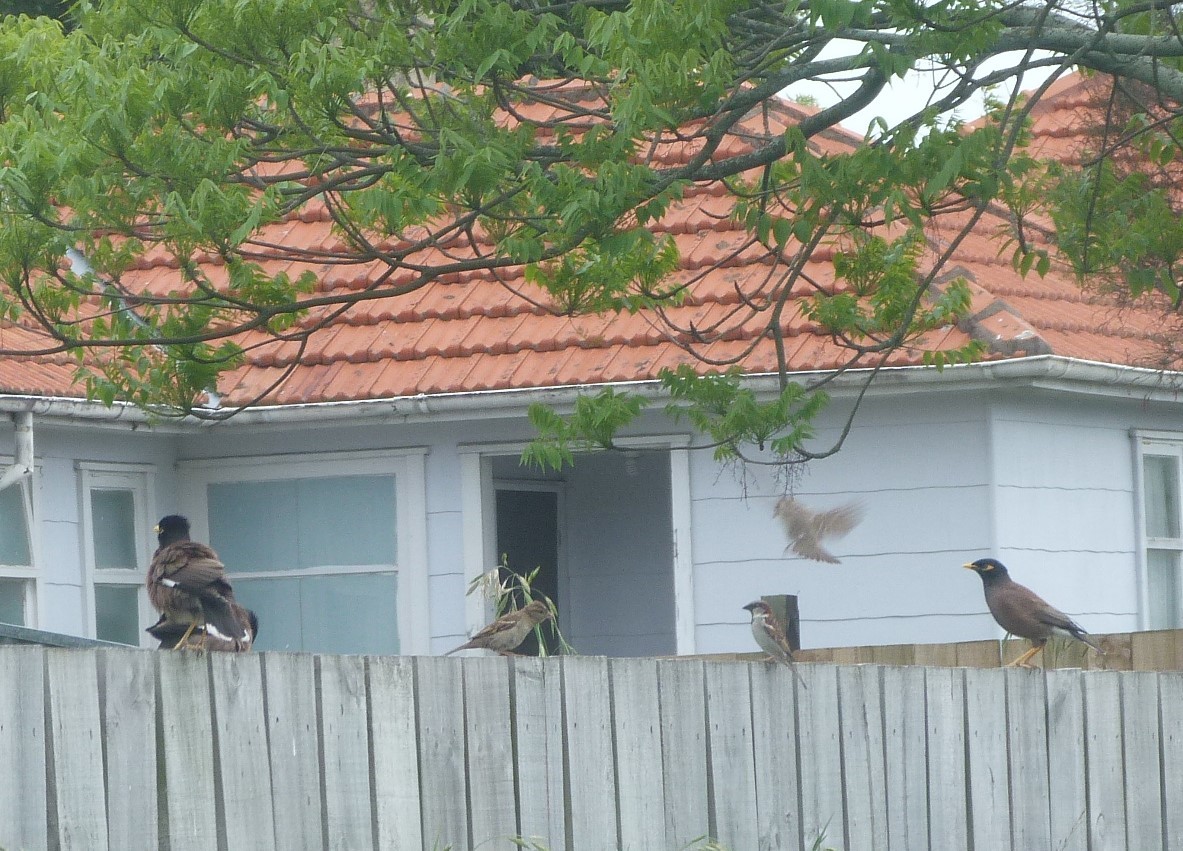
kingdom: Animalia
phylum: Chordata
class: Aves
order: Passeriformes
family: Sturnidae
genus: Acridotheres
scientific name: Acridotheres tristis
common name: Common myna
